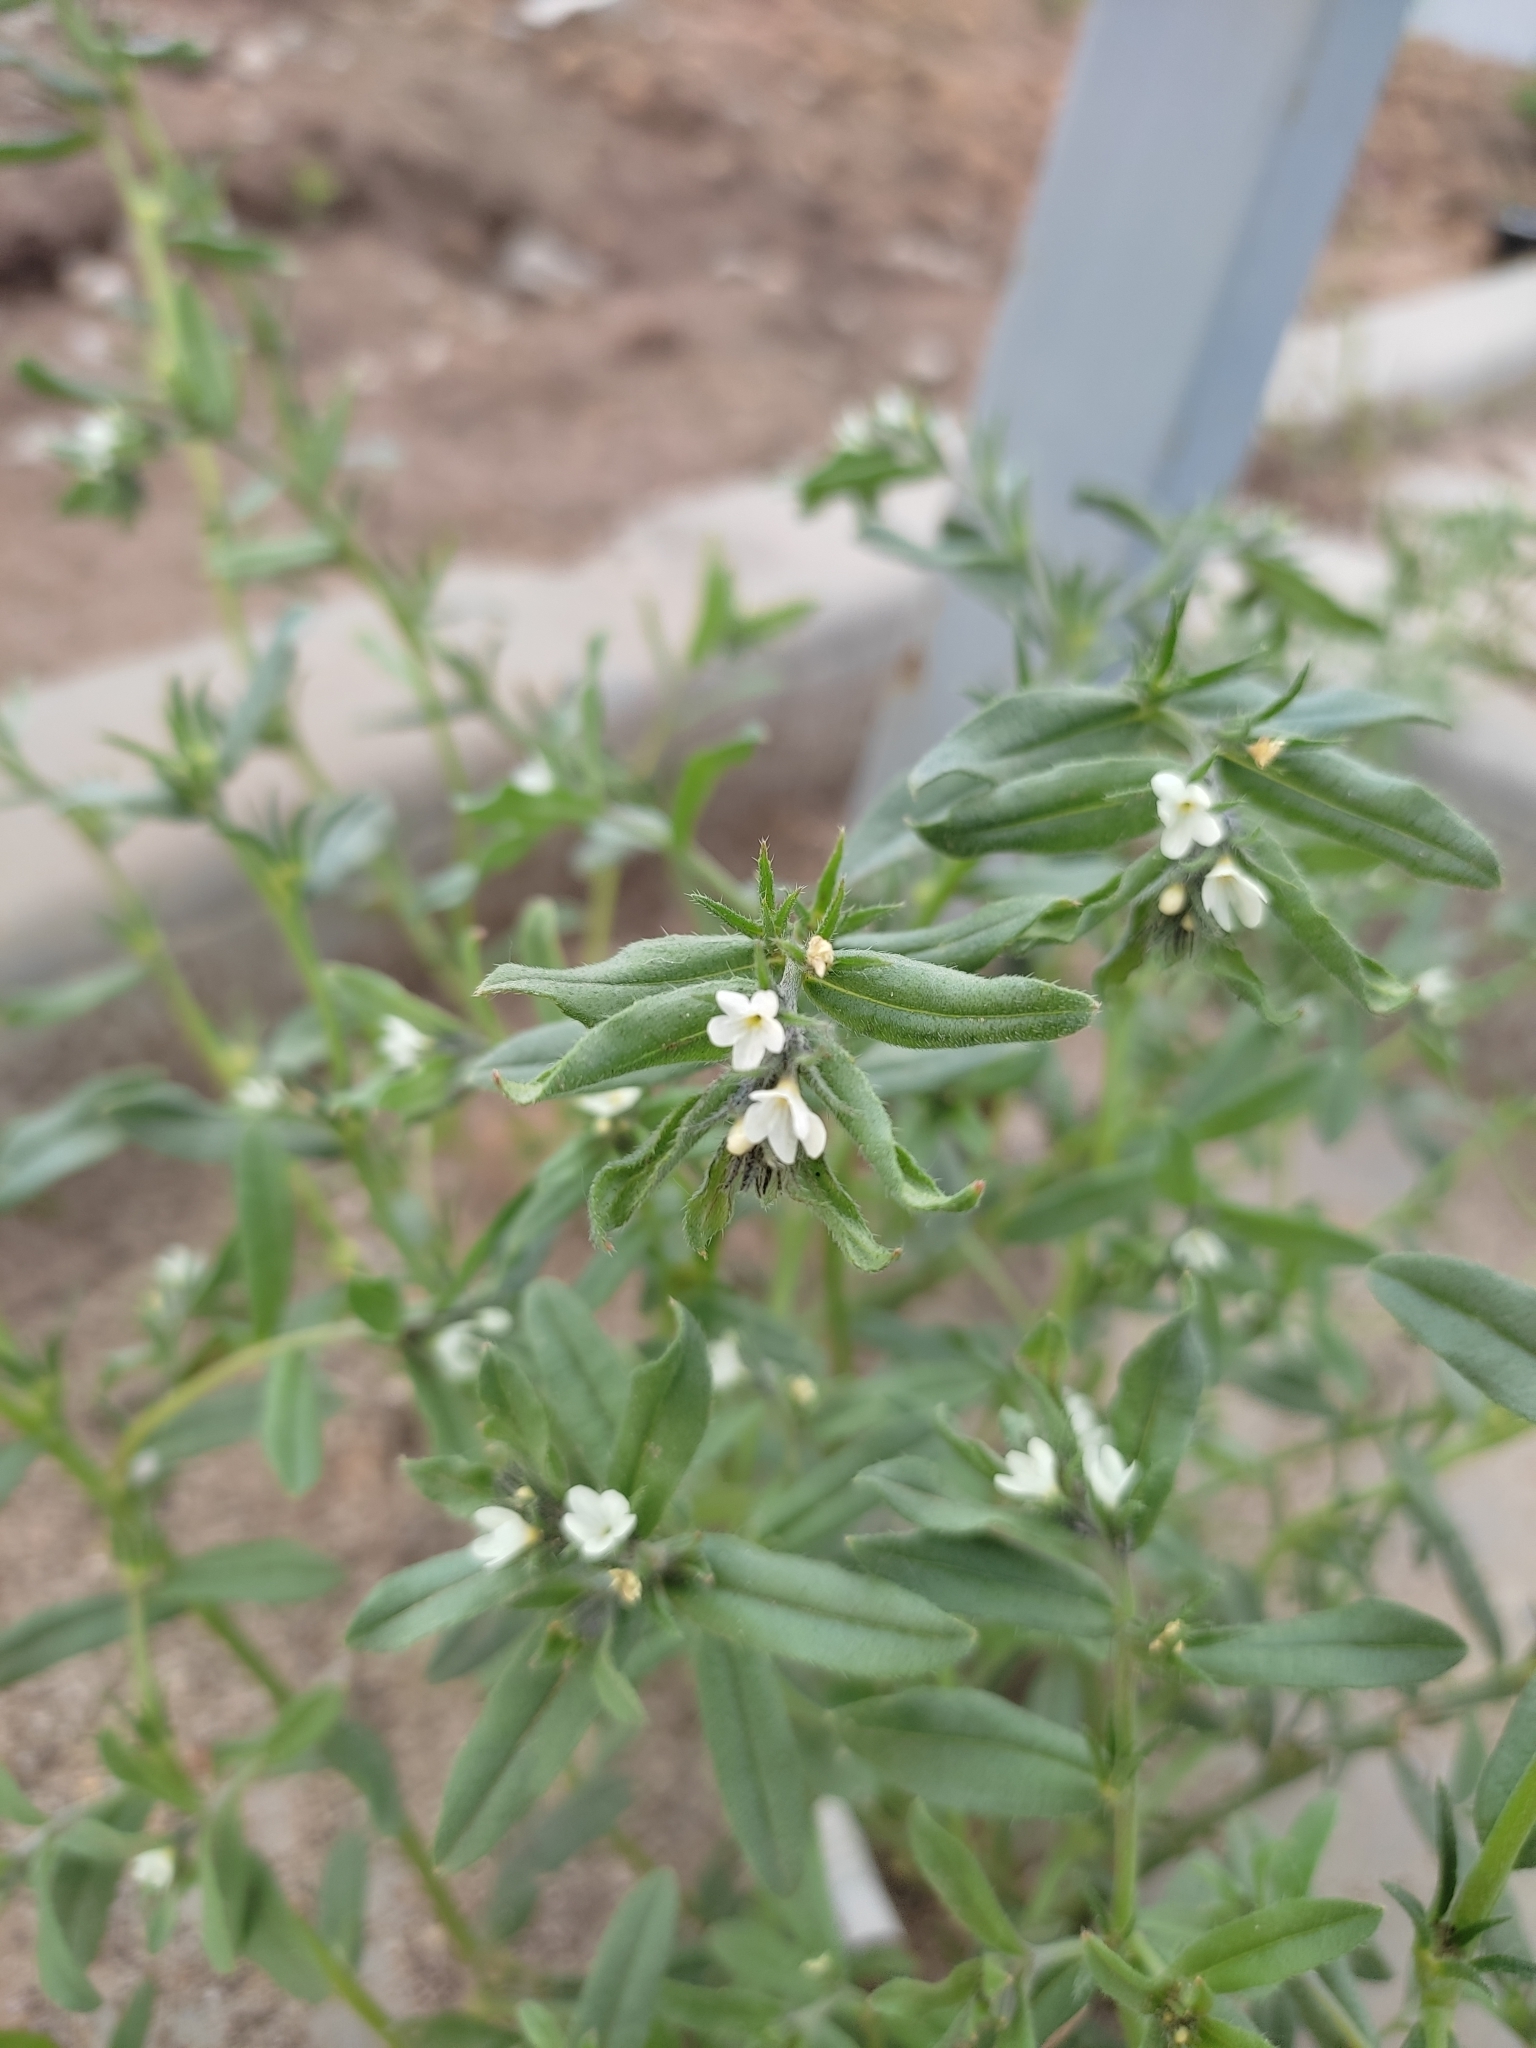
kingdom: Plantae
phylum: Tracheophyta
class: Magnoliopsida
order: Boraginales
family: Boraginaceae
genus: Buglossoides
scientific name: Buglossoides arvensis
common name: Corn gromwell
